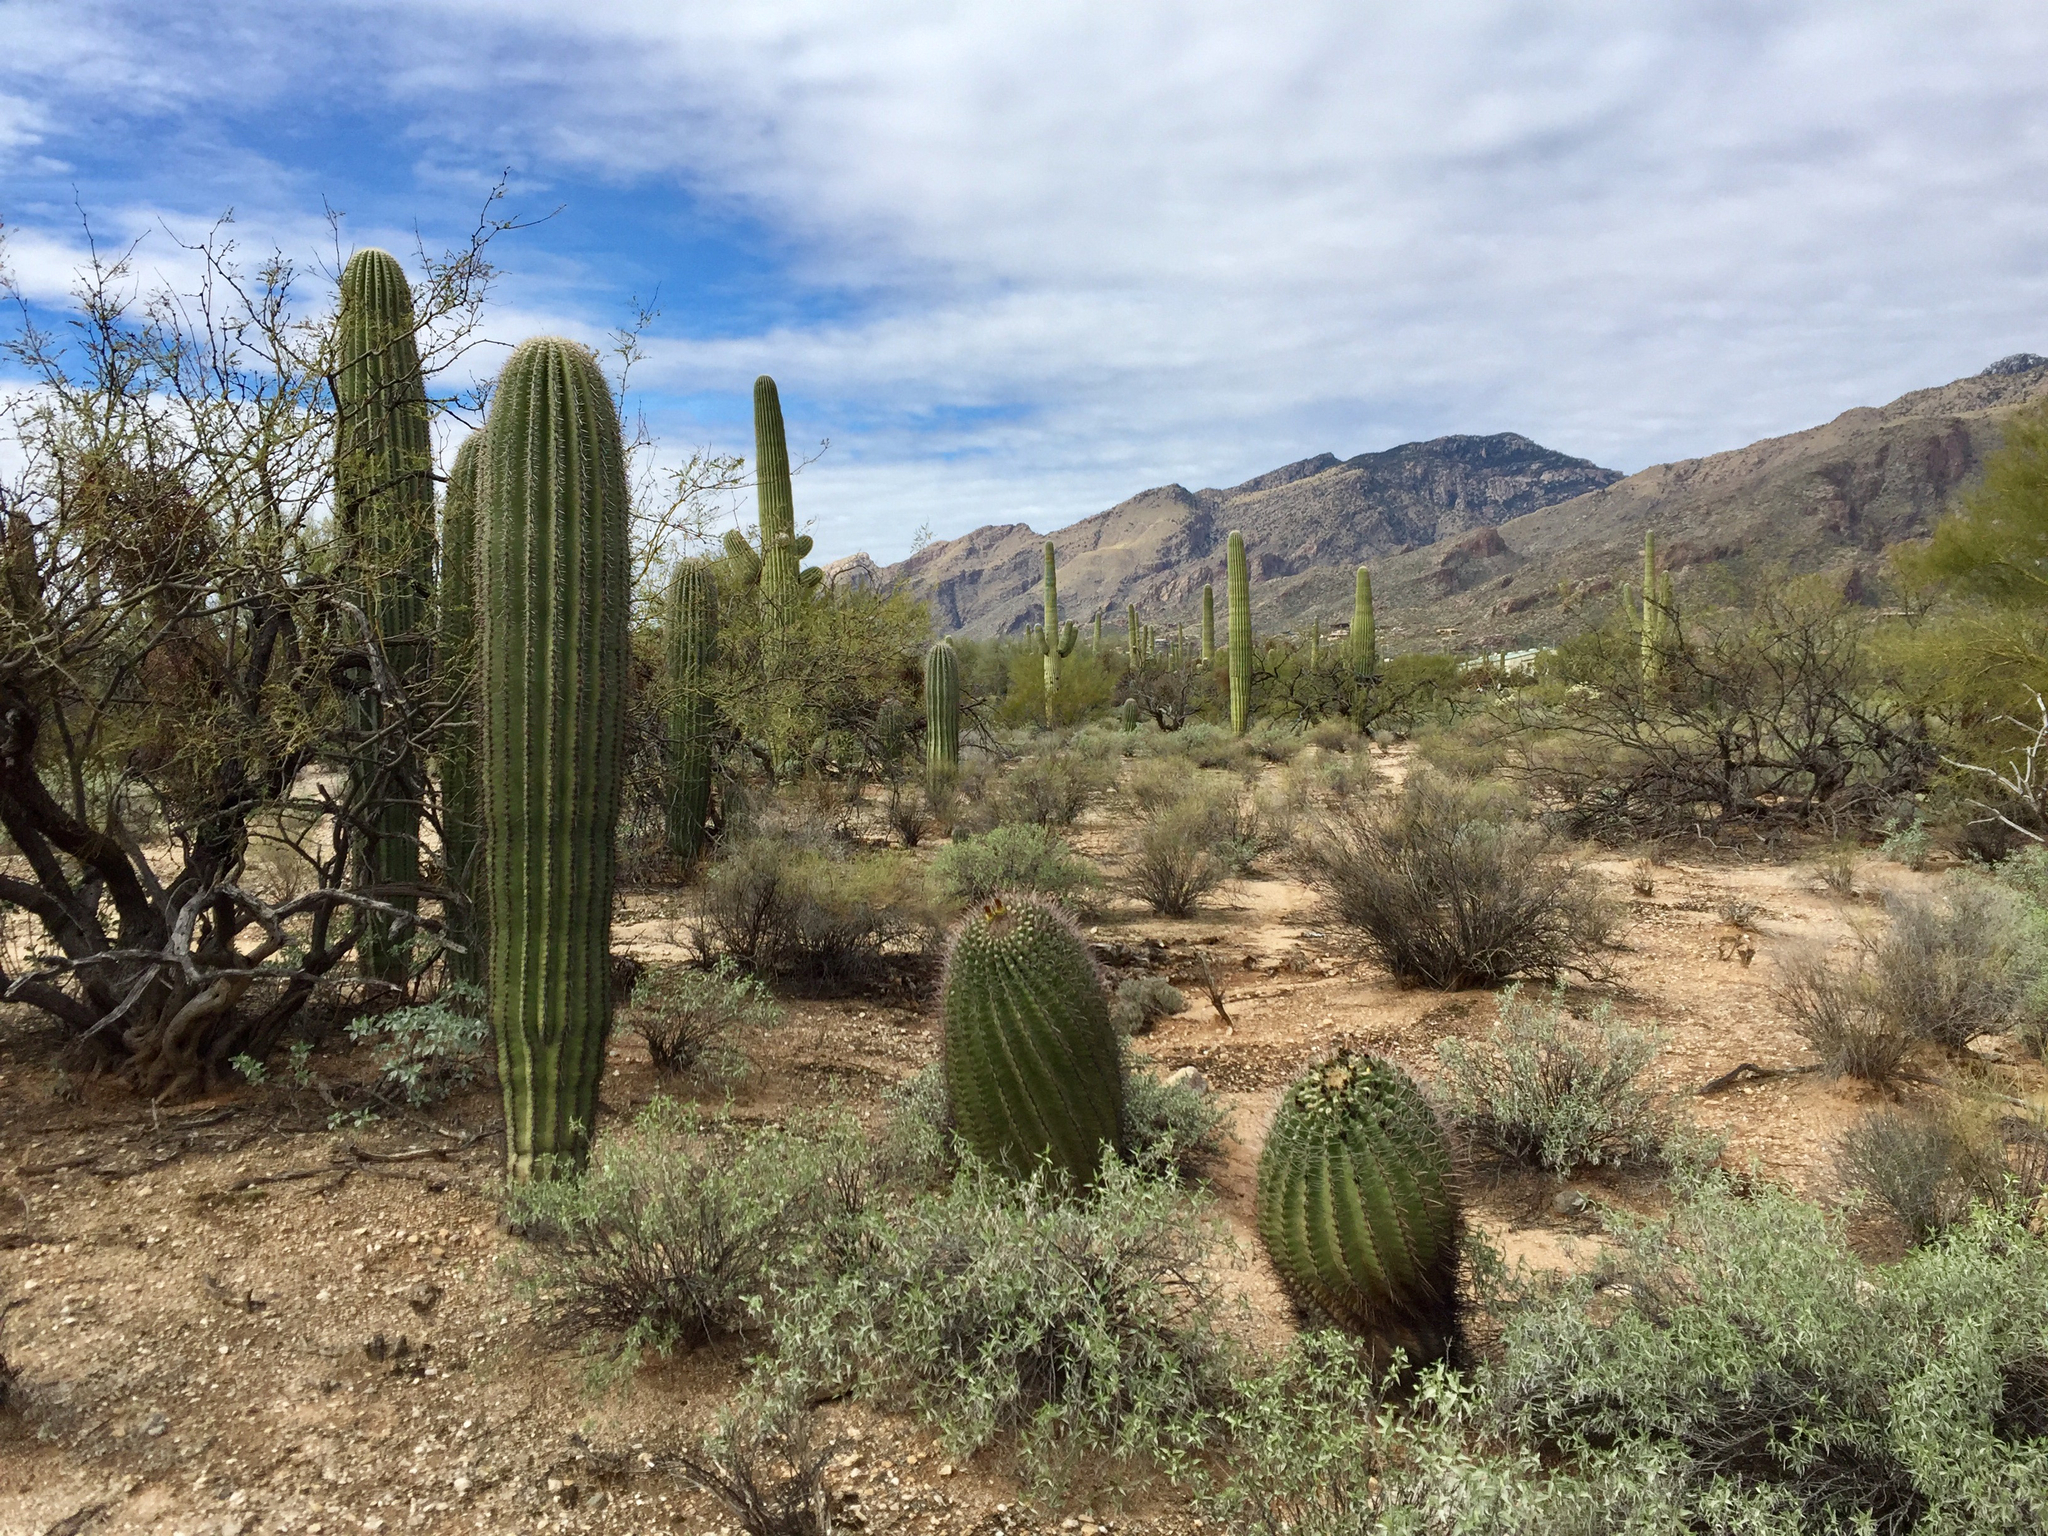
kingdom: Plantae
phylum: Tracheophyta
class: Magnoliopsida
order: Caryophyllales
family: Cactaceae
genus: Carnegiea
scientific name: Carnegiea gigantea
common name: Saguaro
